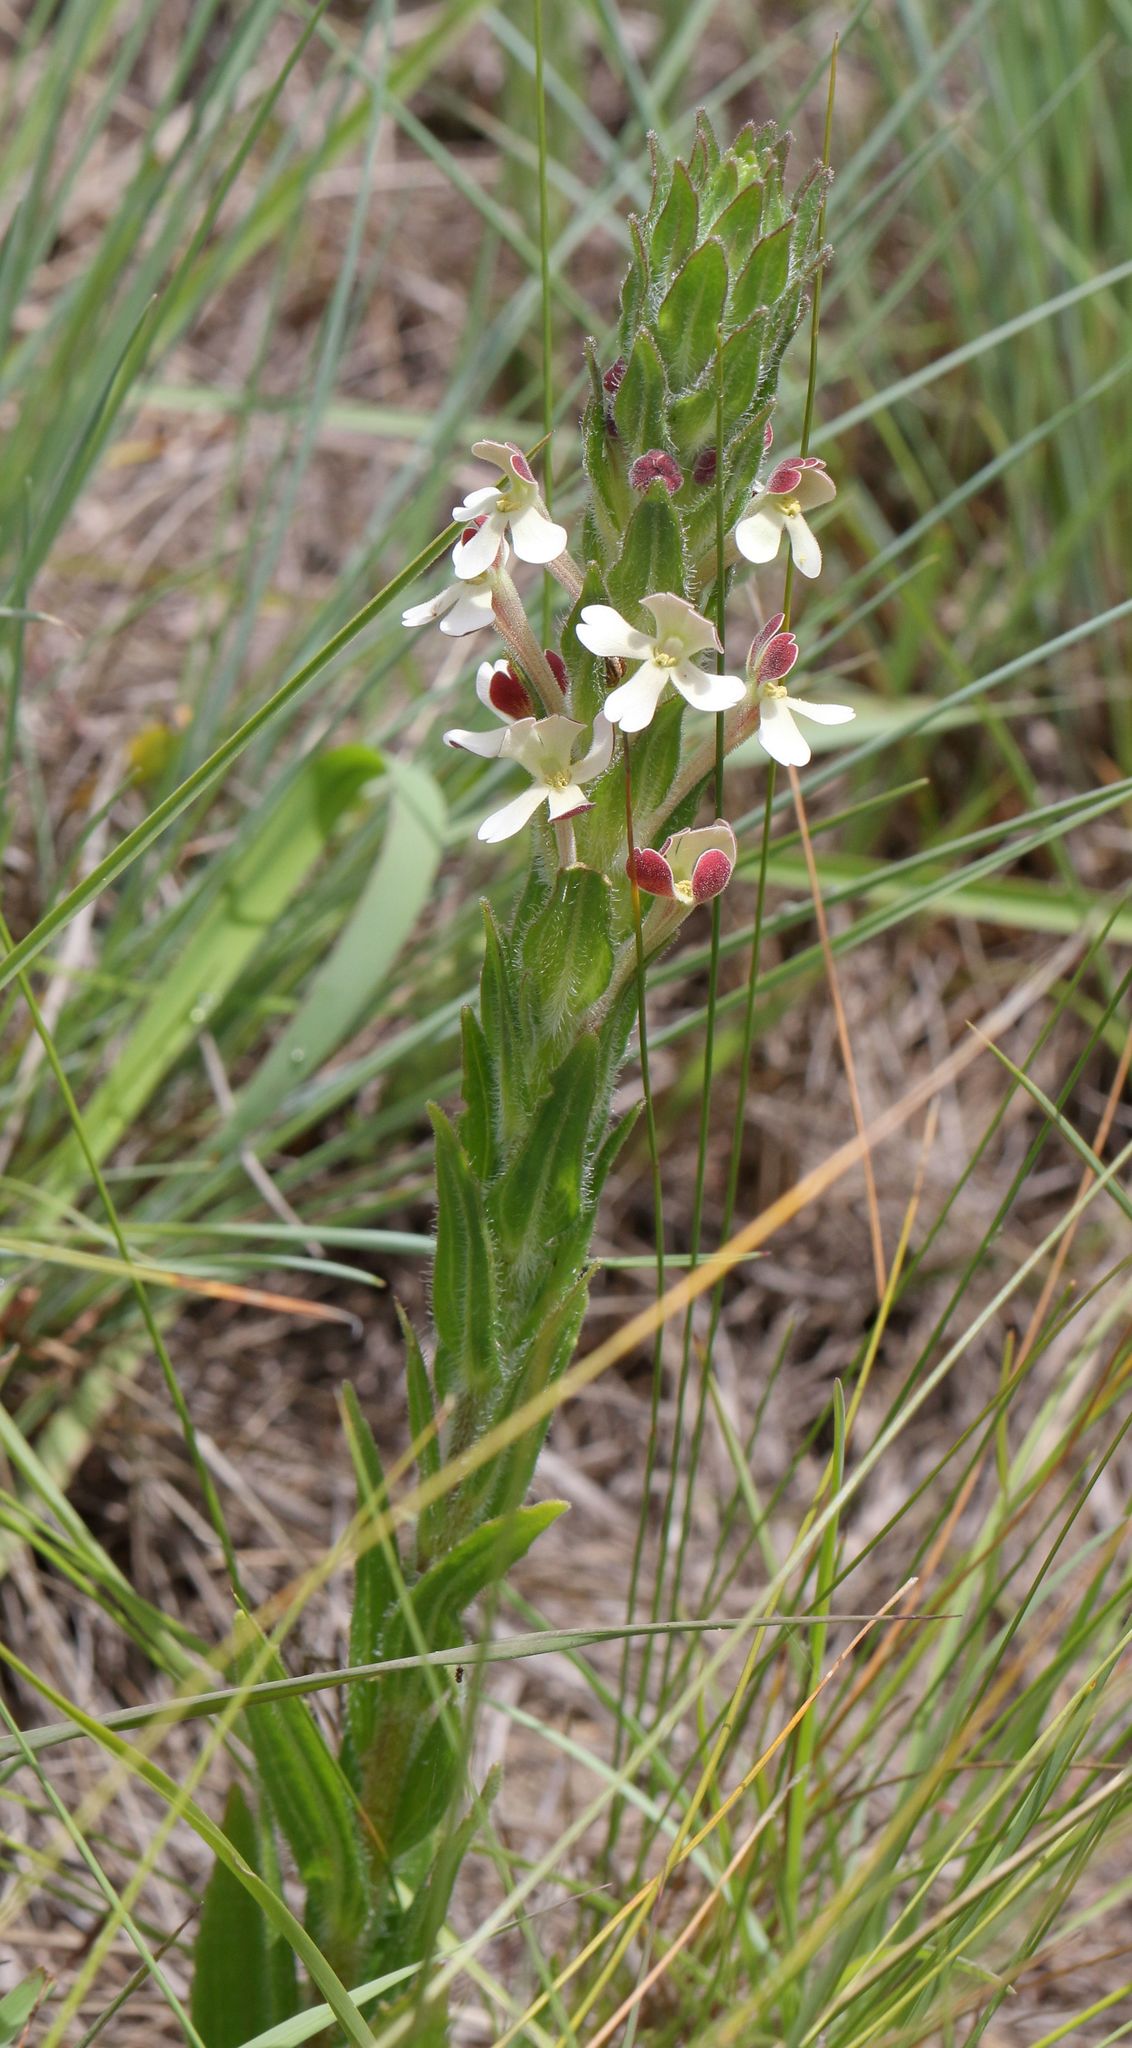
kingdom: Plantae
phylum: Tracheophyta
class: Magnoliopsida
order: Lamiales
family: Scrophulariaceae
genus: Zaluzianskya
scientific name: Zaluzianskya microsiphon
